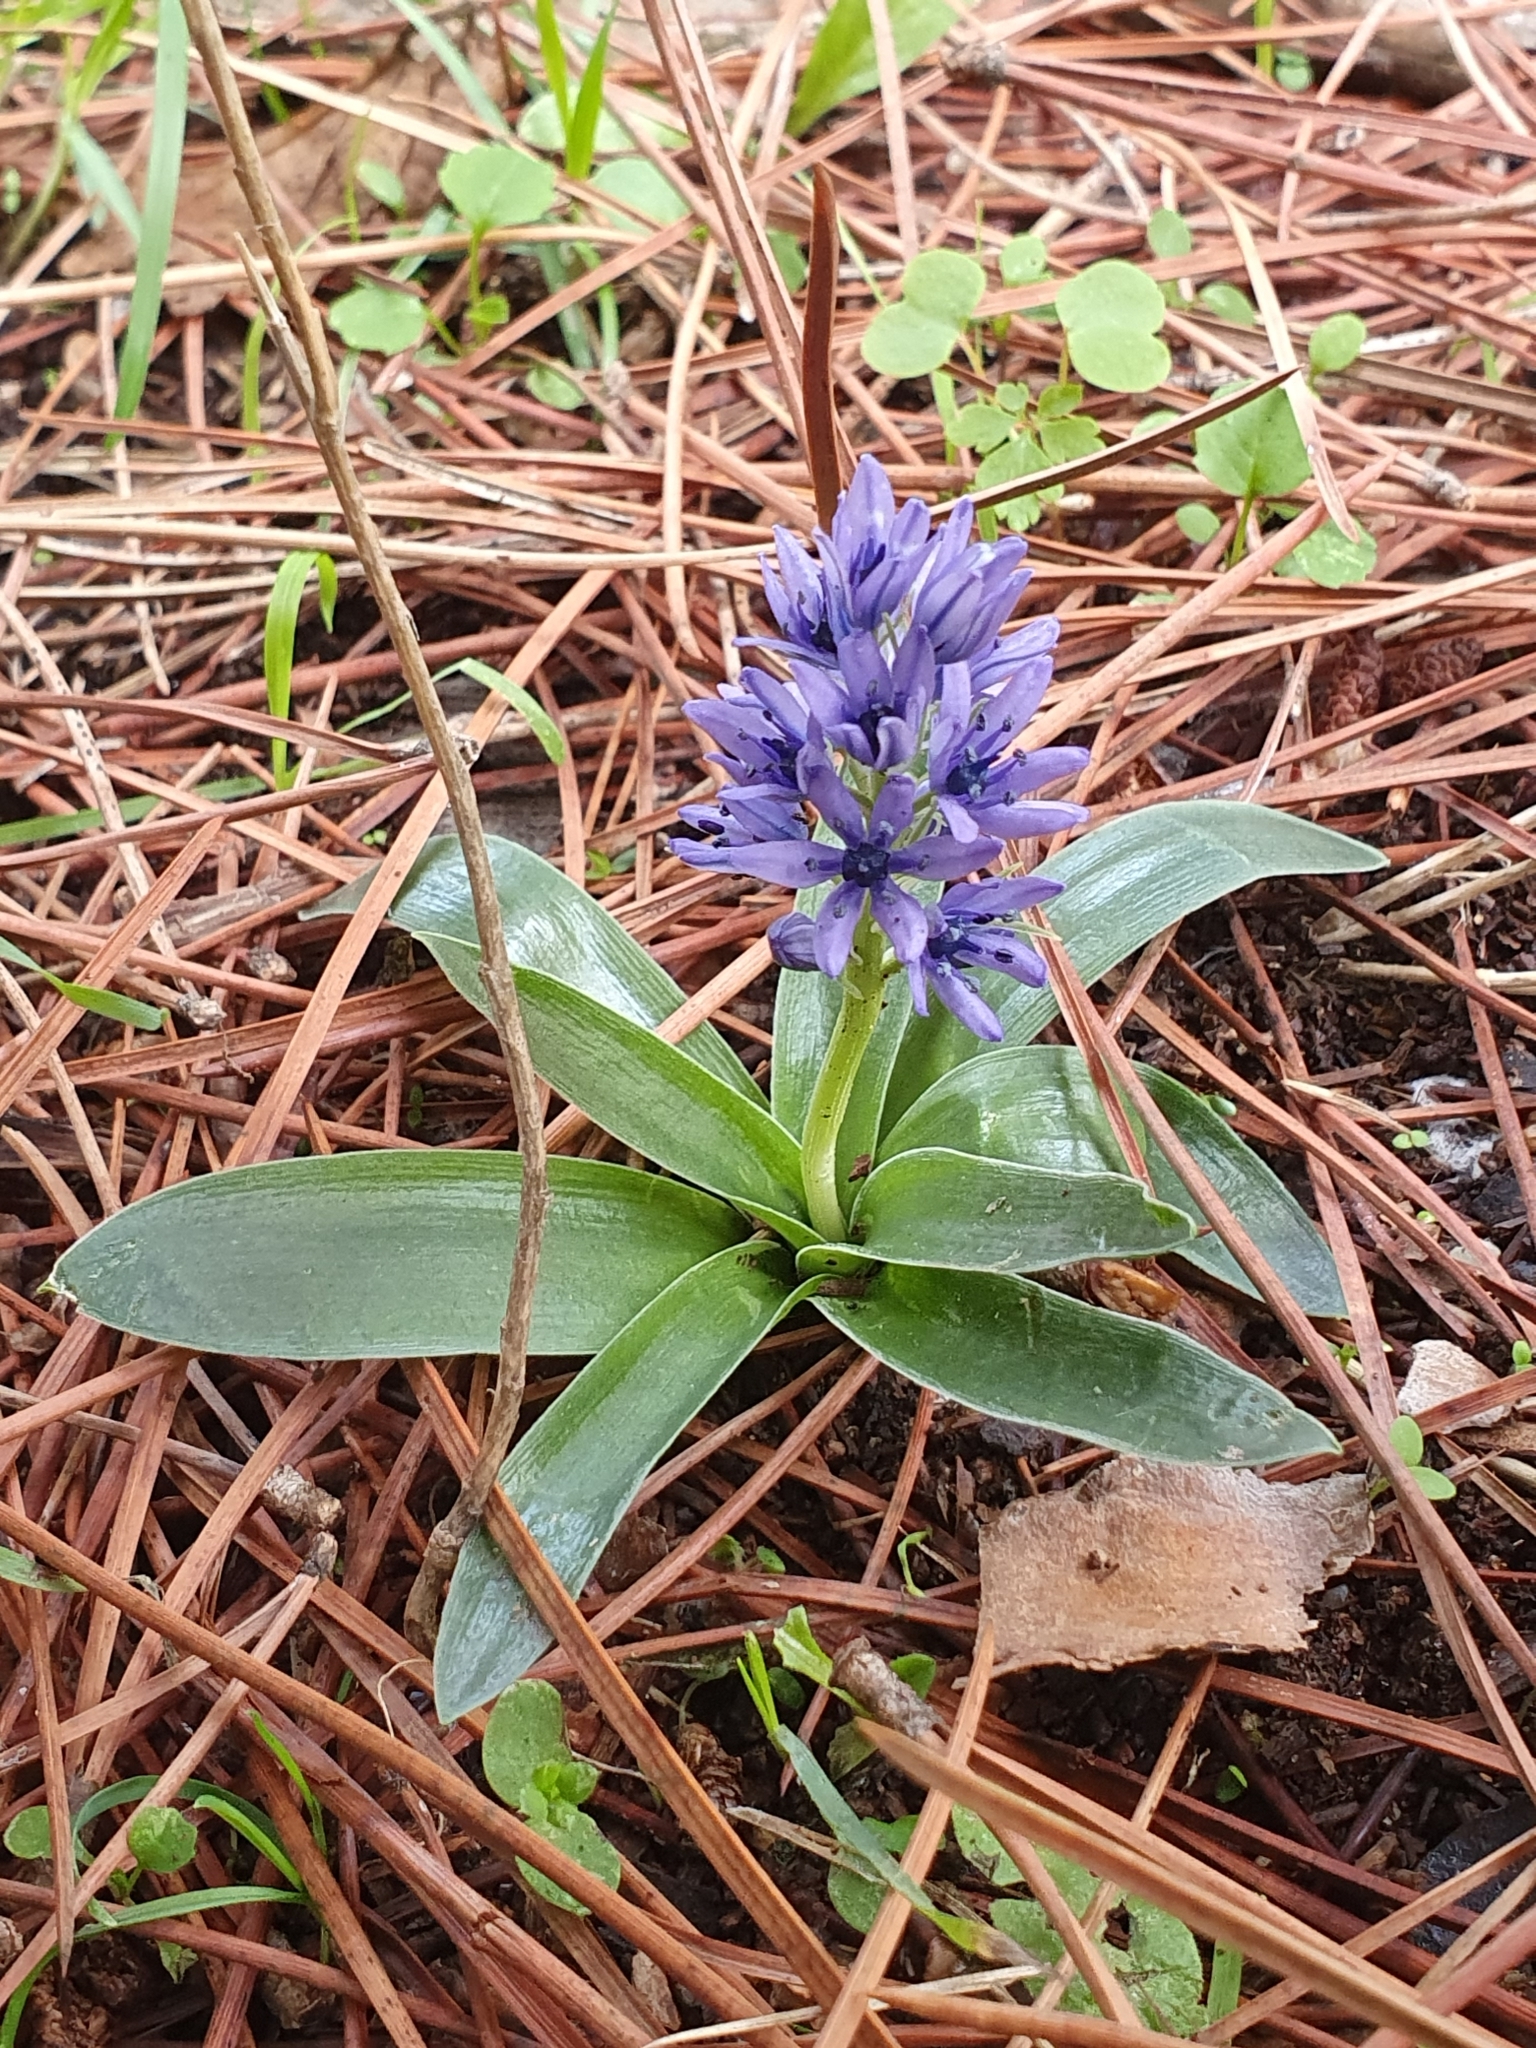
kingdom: Plantae
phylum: Tracheophyta
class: Liliopsida
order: Asparagales
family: Asparagaceae
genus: Hyacinthoides
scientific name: Hyacinthoides lingulata
